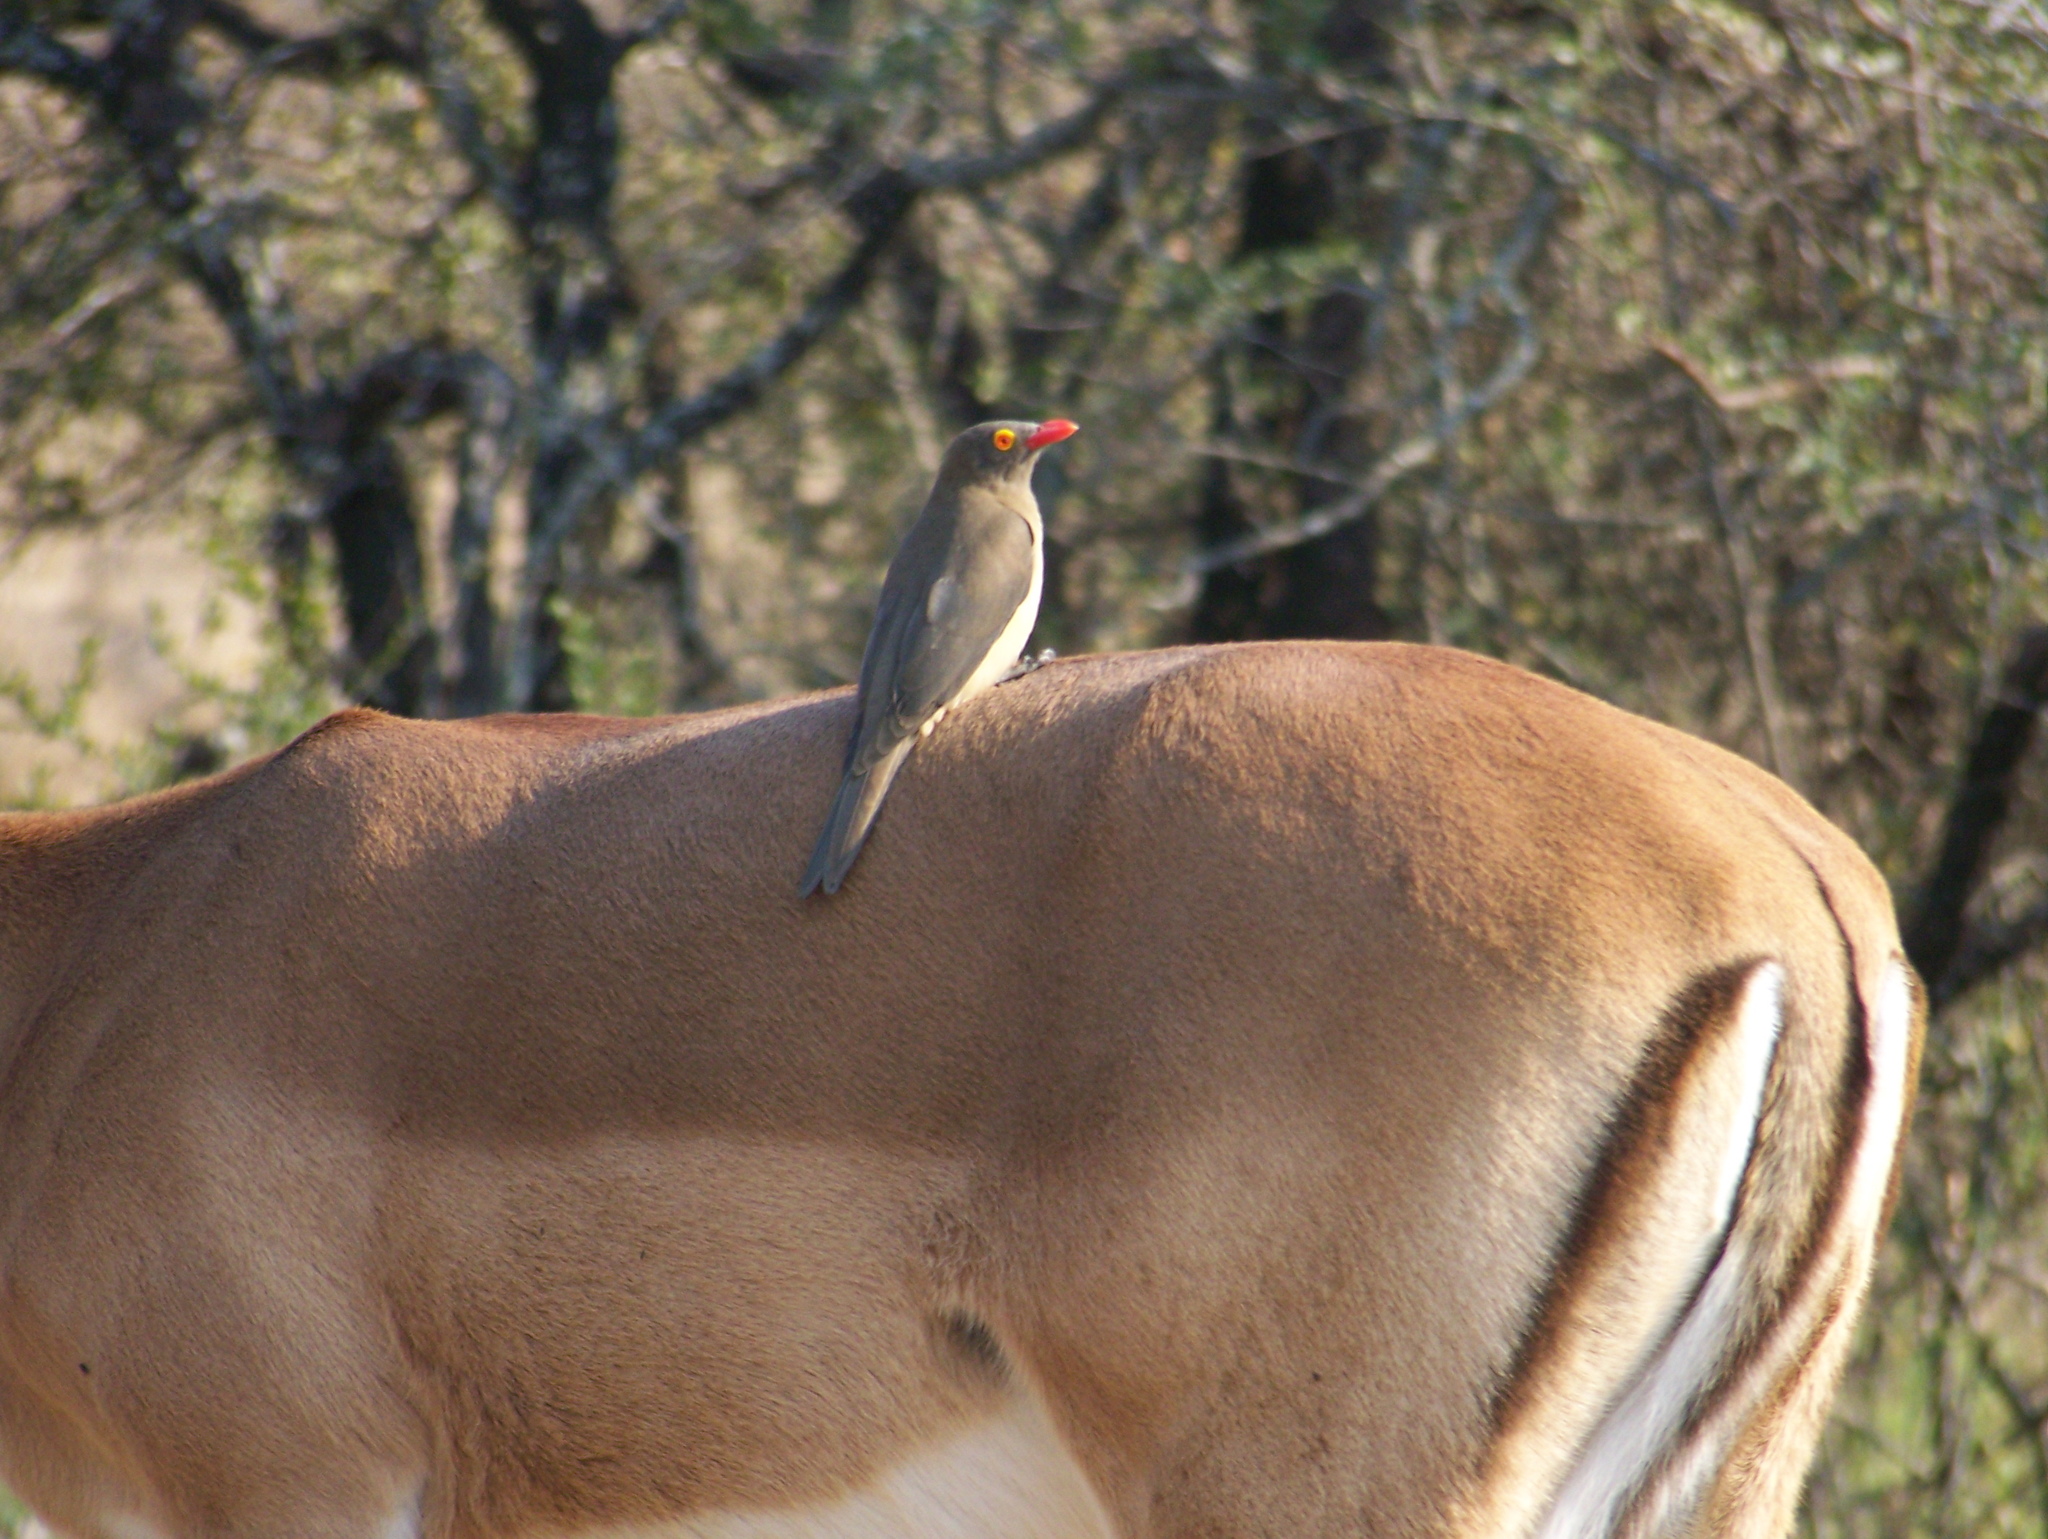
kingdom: Animalia
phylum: Chordata
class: Aves
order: Passeriformes
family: Buphagidae
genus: Buphagus
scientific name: Buphagus erythrorhynchus
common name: Red-billed oxpecker
